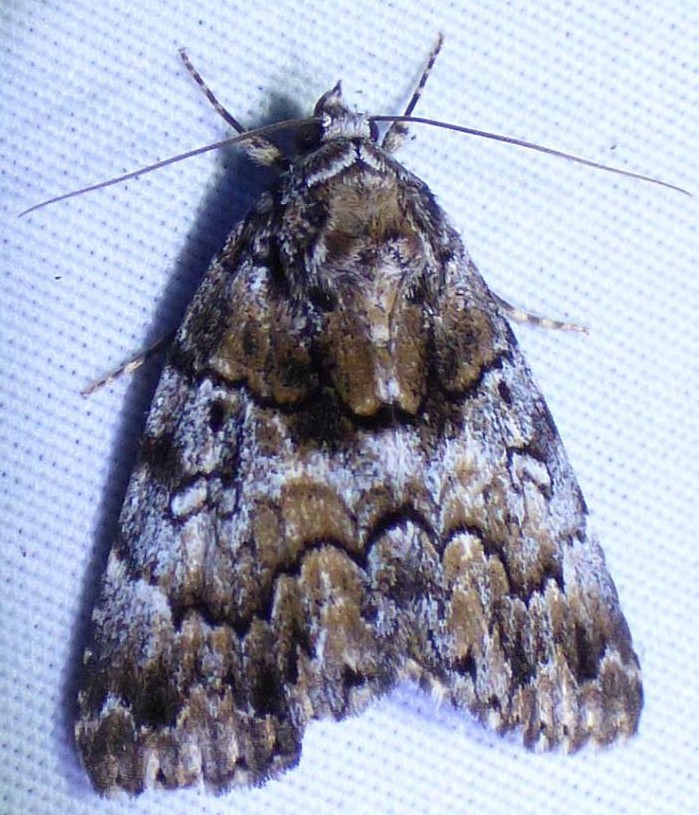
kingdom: Animalia
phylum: Arthropoda
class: Insecta
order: Lepidoptera
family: Erebidae
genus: Allotria
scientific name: Allotria elonympha
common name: False underwing
